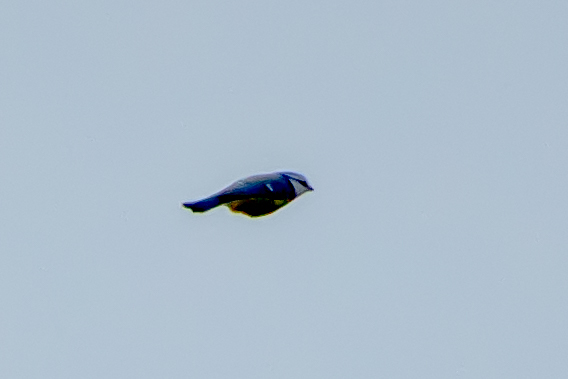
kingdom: Animalia
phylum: Chordata
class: Aves
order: Passeriformes
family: Paridae
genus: Cyanistes
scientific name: Cyanistes caeruleus
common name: Eurasian blue tit
